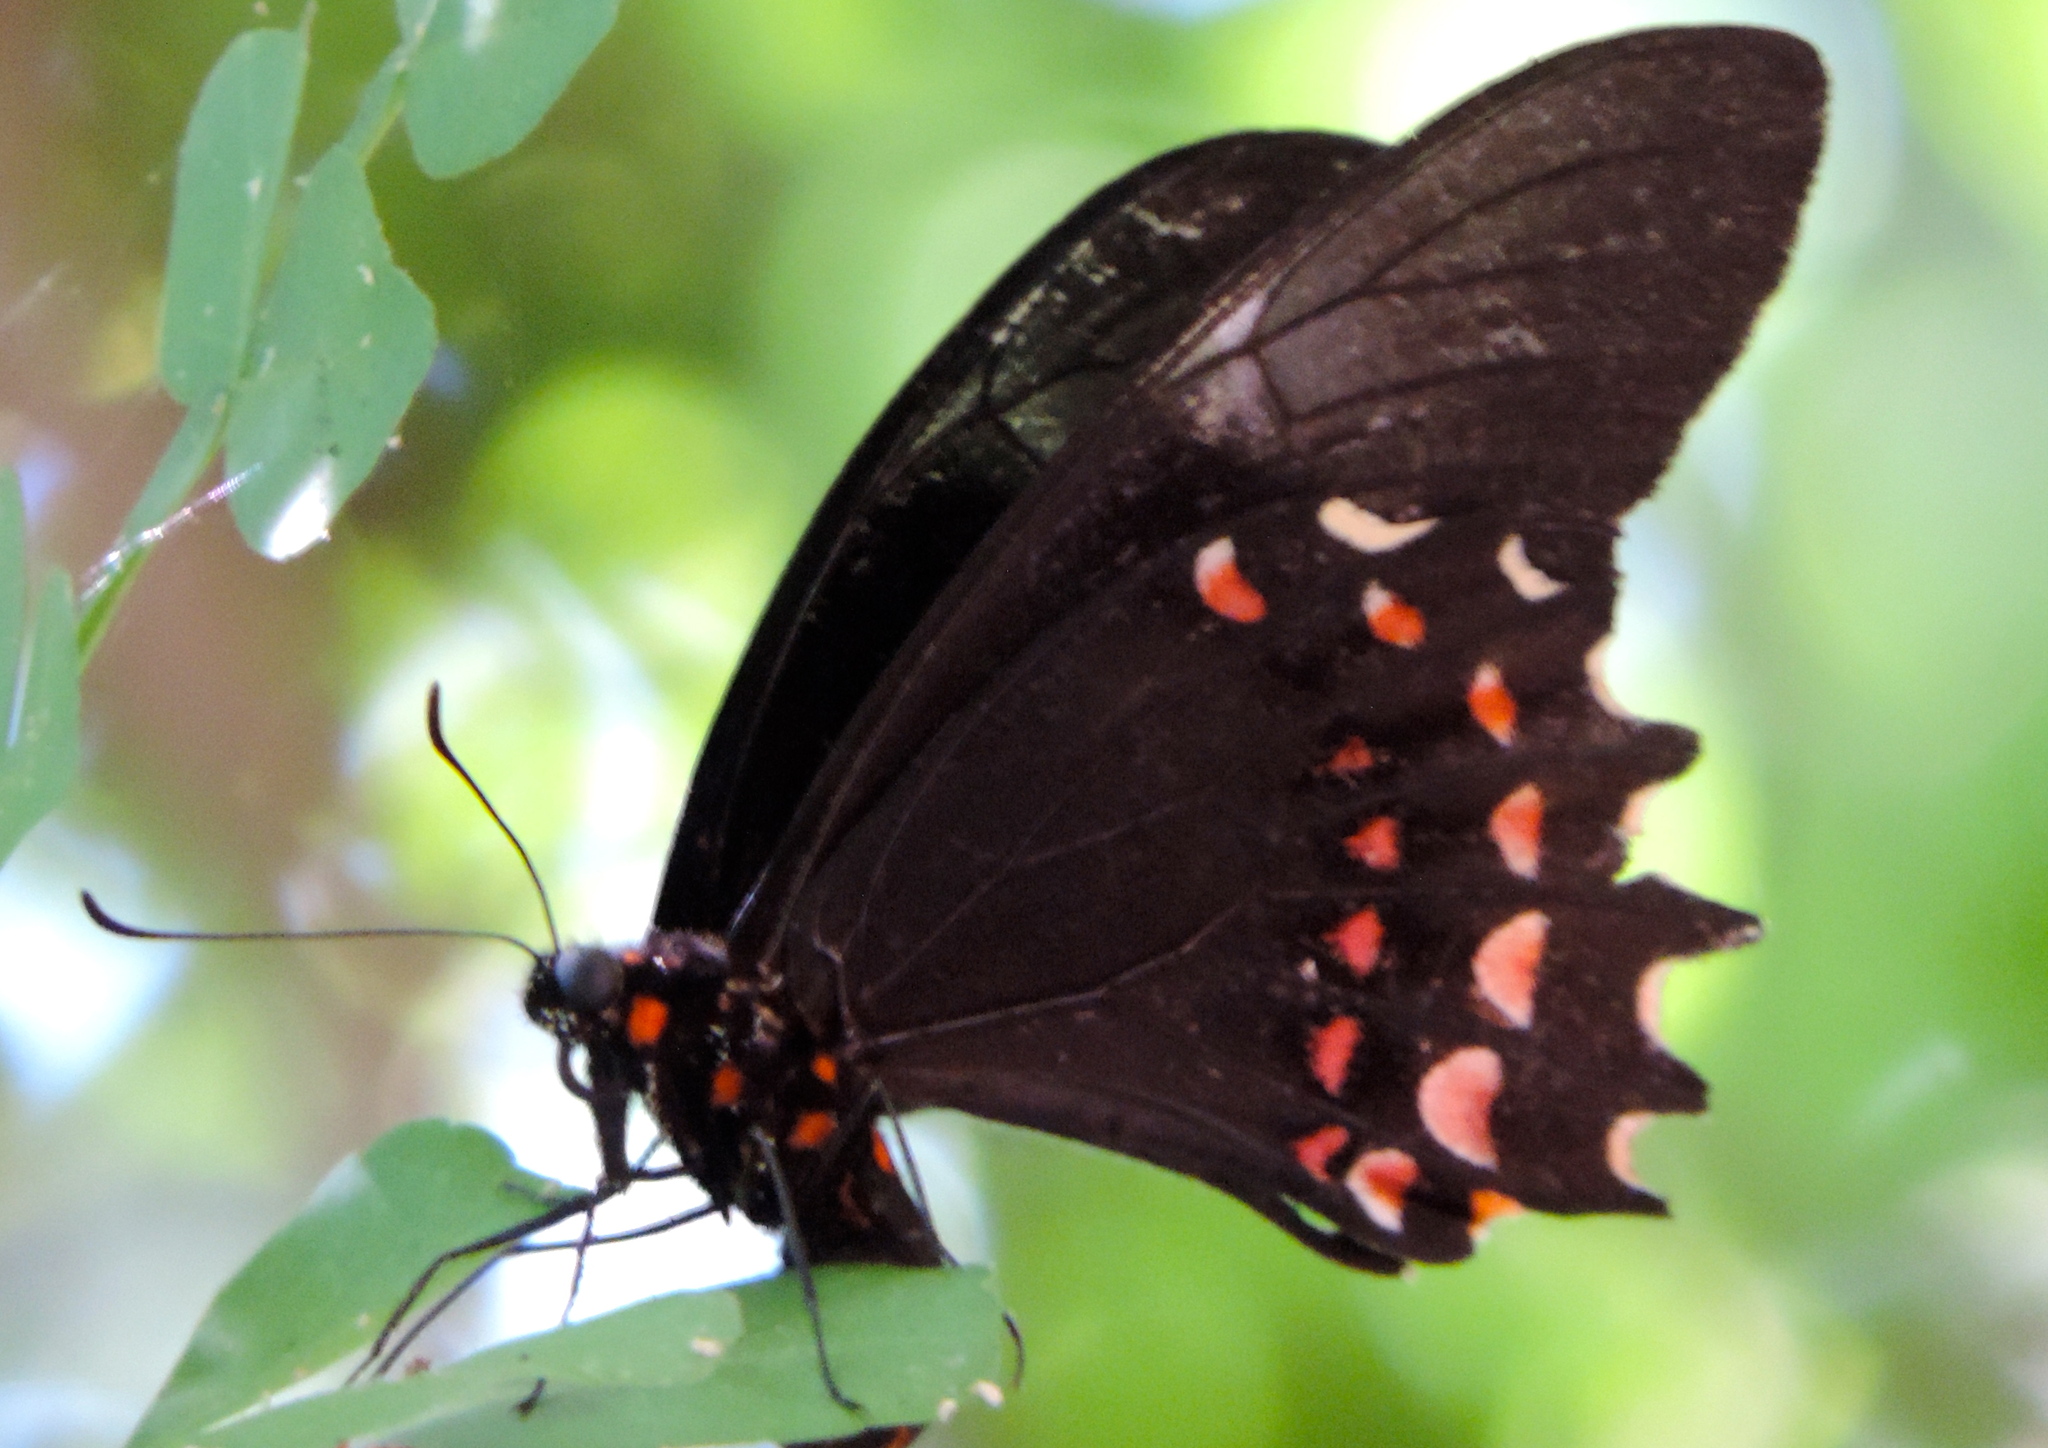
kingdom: Animalia
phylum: Arthropoda
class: Insecta
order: Lepidoptera
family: Papilionidae
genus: Heraclides
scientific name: Heraclides rogeri
